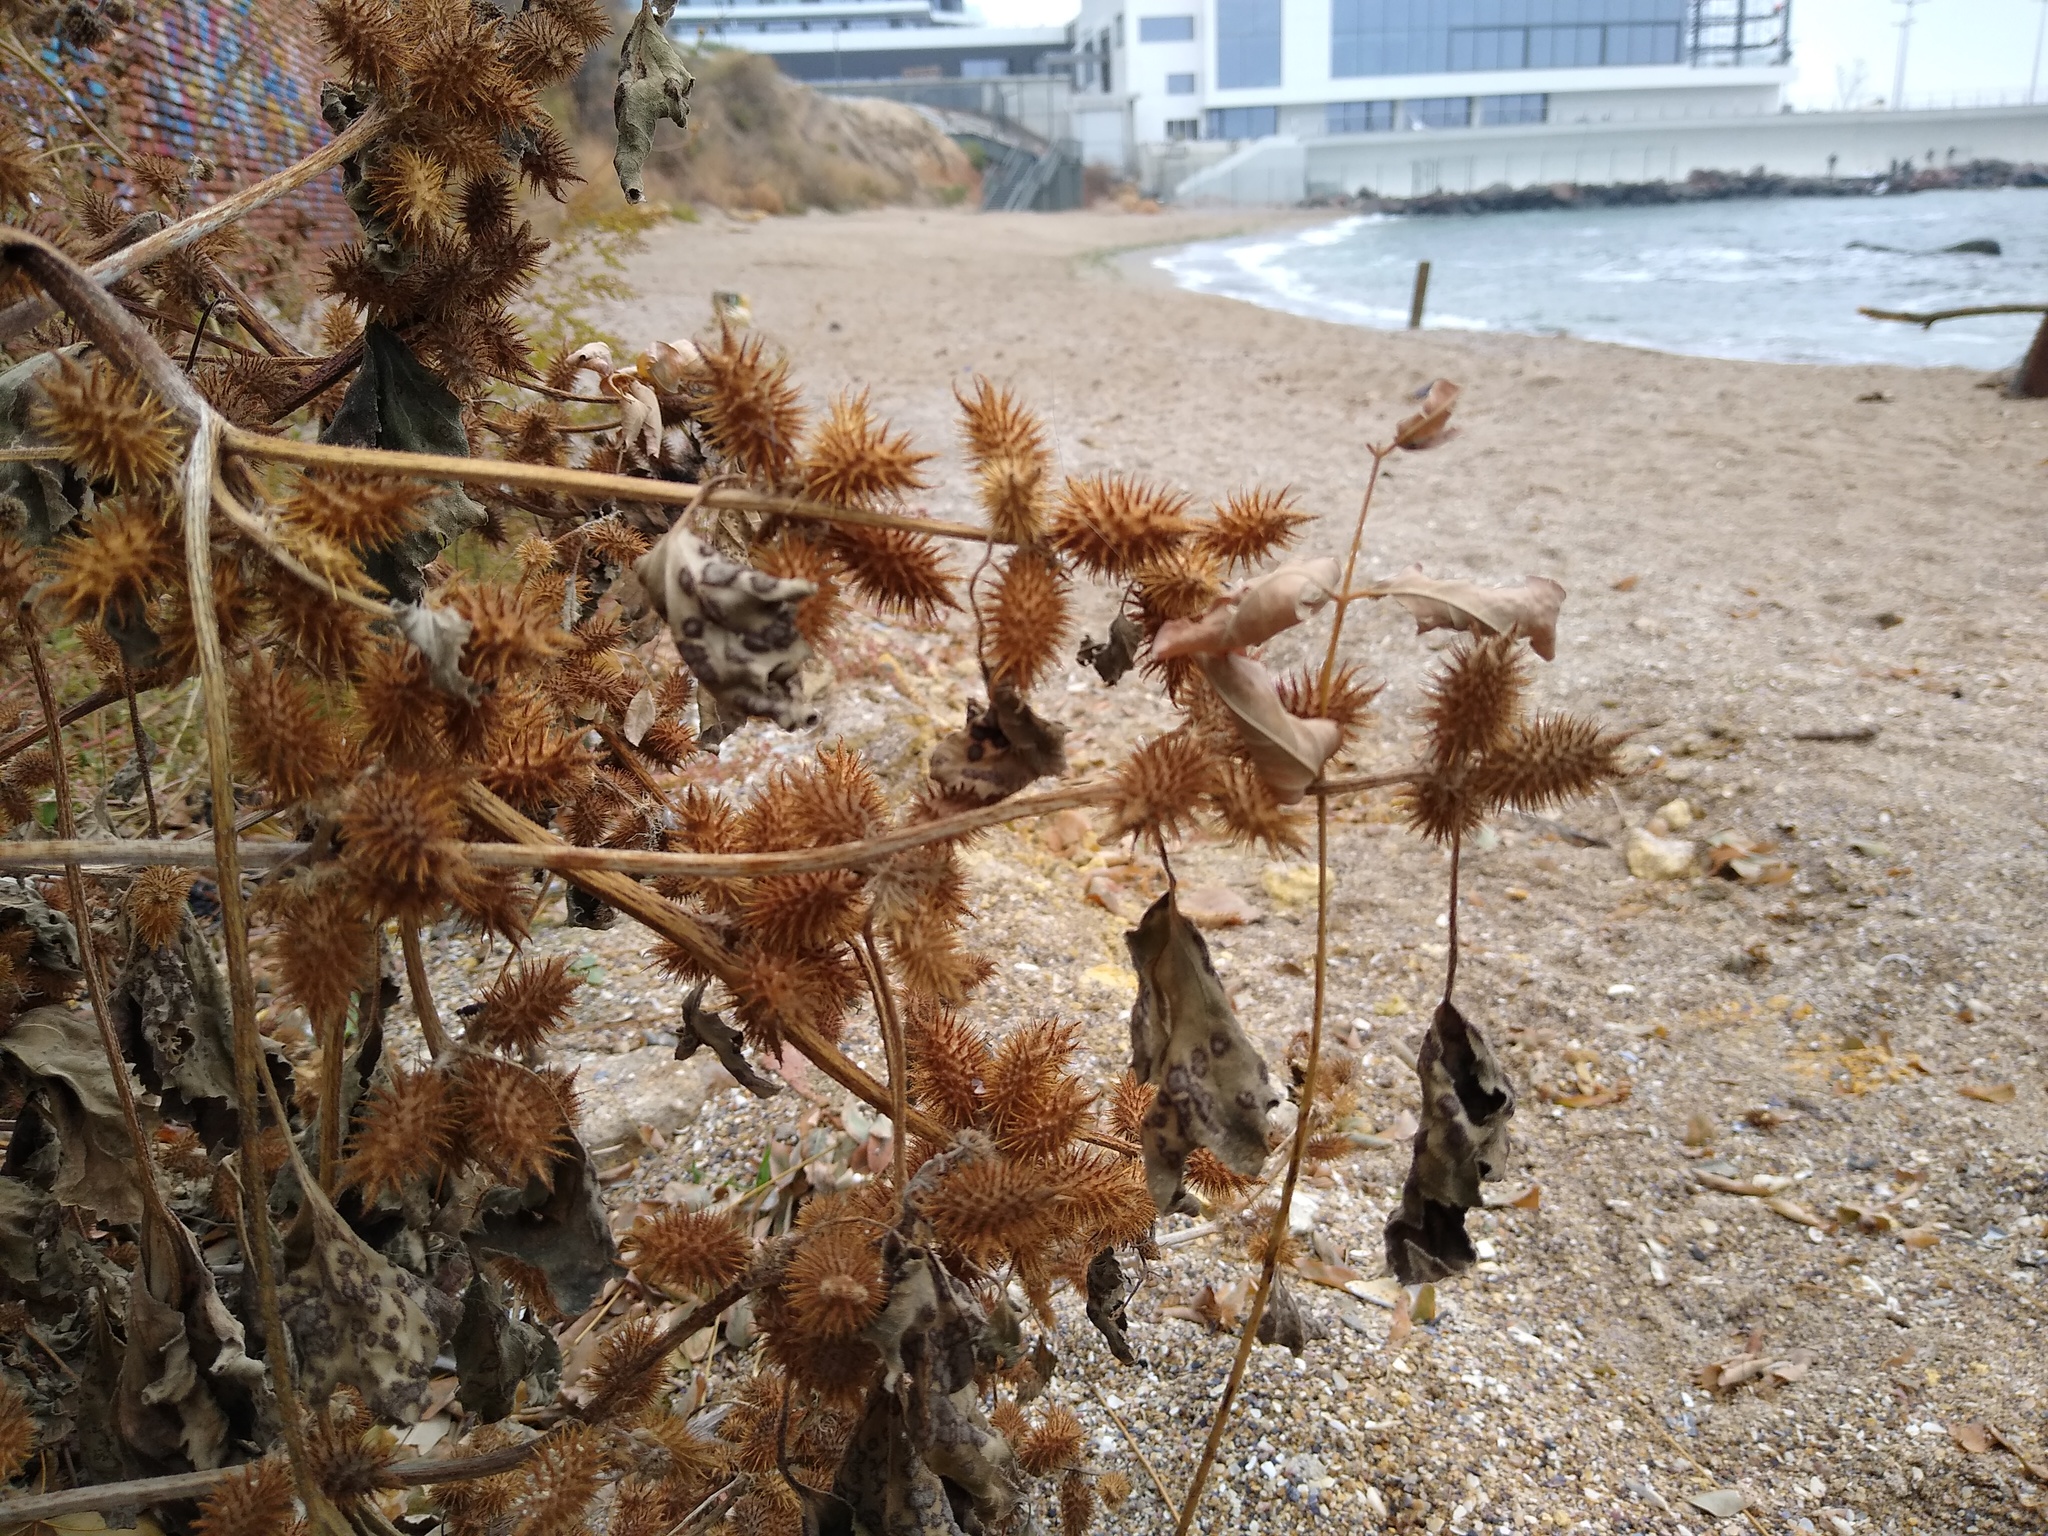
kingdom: Plantae
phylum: Tracheophyta
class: Magnoliopsida
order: Asterales
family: Asteraceae
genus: Xanthium
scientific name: Xanthium orientale
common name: Californian burr
